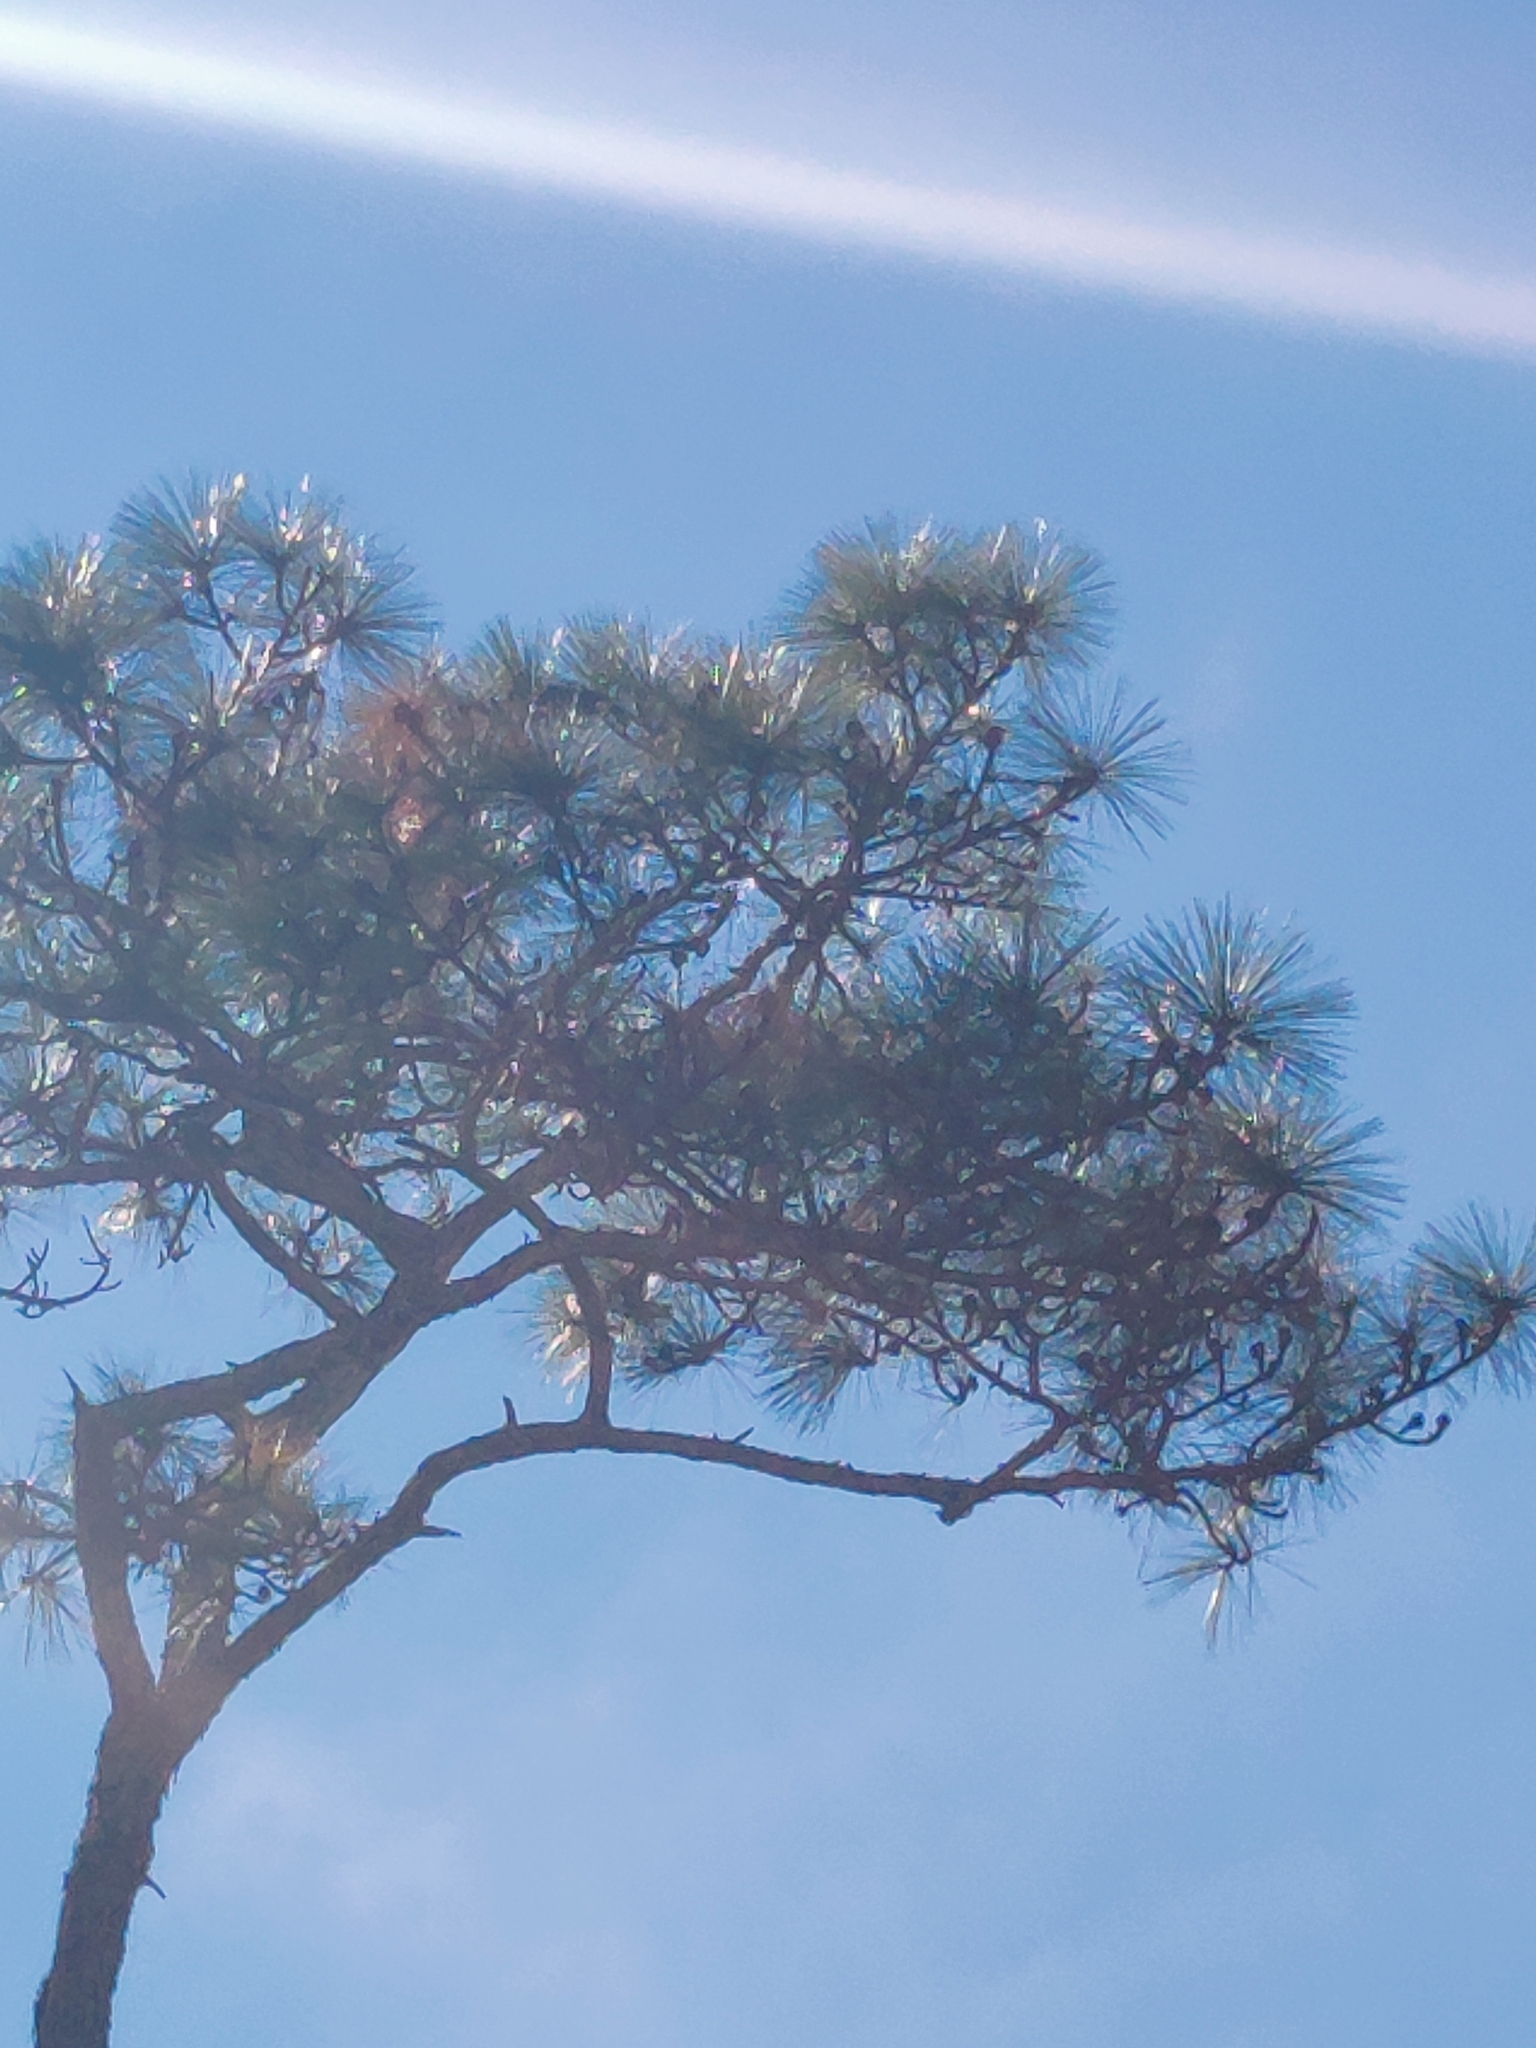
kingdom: Plantae
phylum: Tracheophyta
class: Pinopsida
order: Pinales
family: Pinaceae
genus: Pinus
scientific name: Pinus palustris
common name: Longleaf pine
